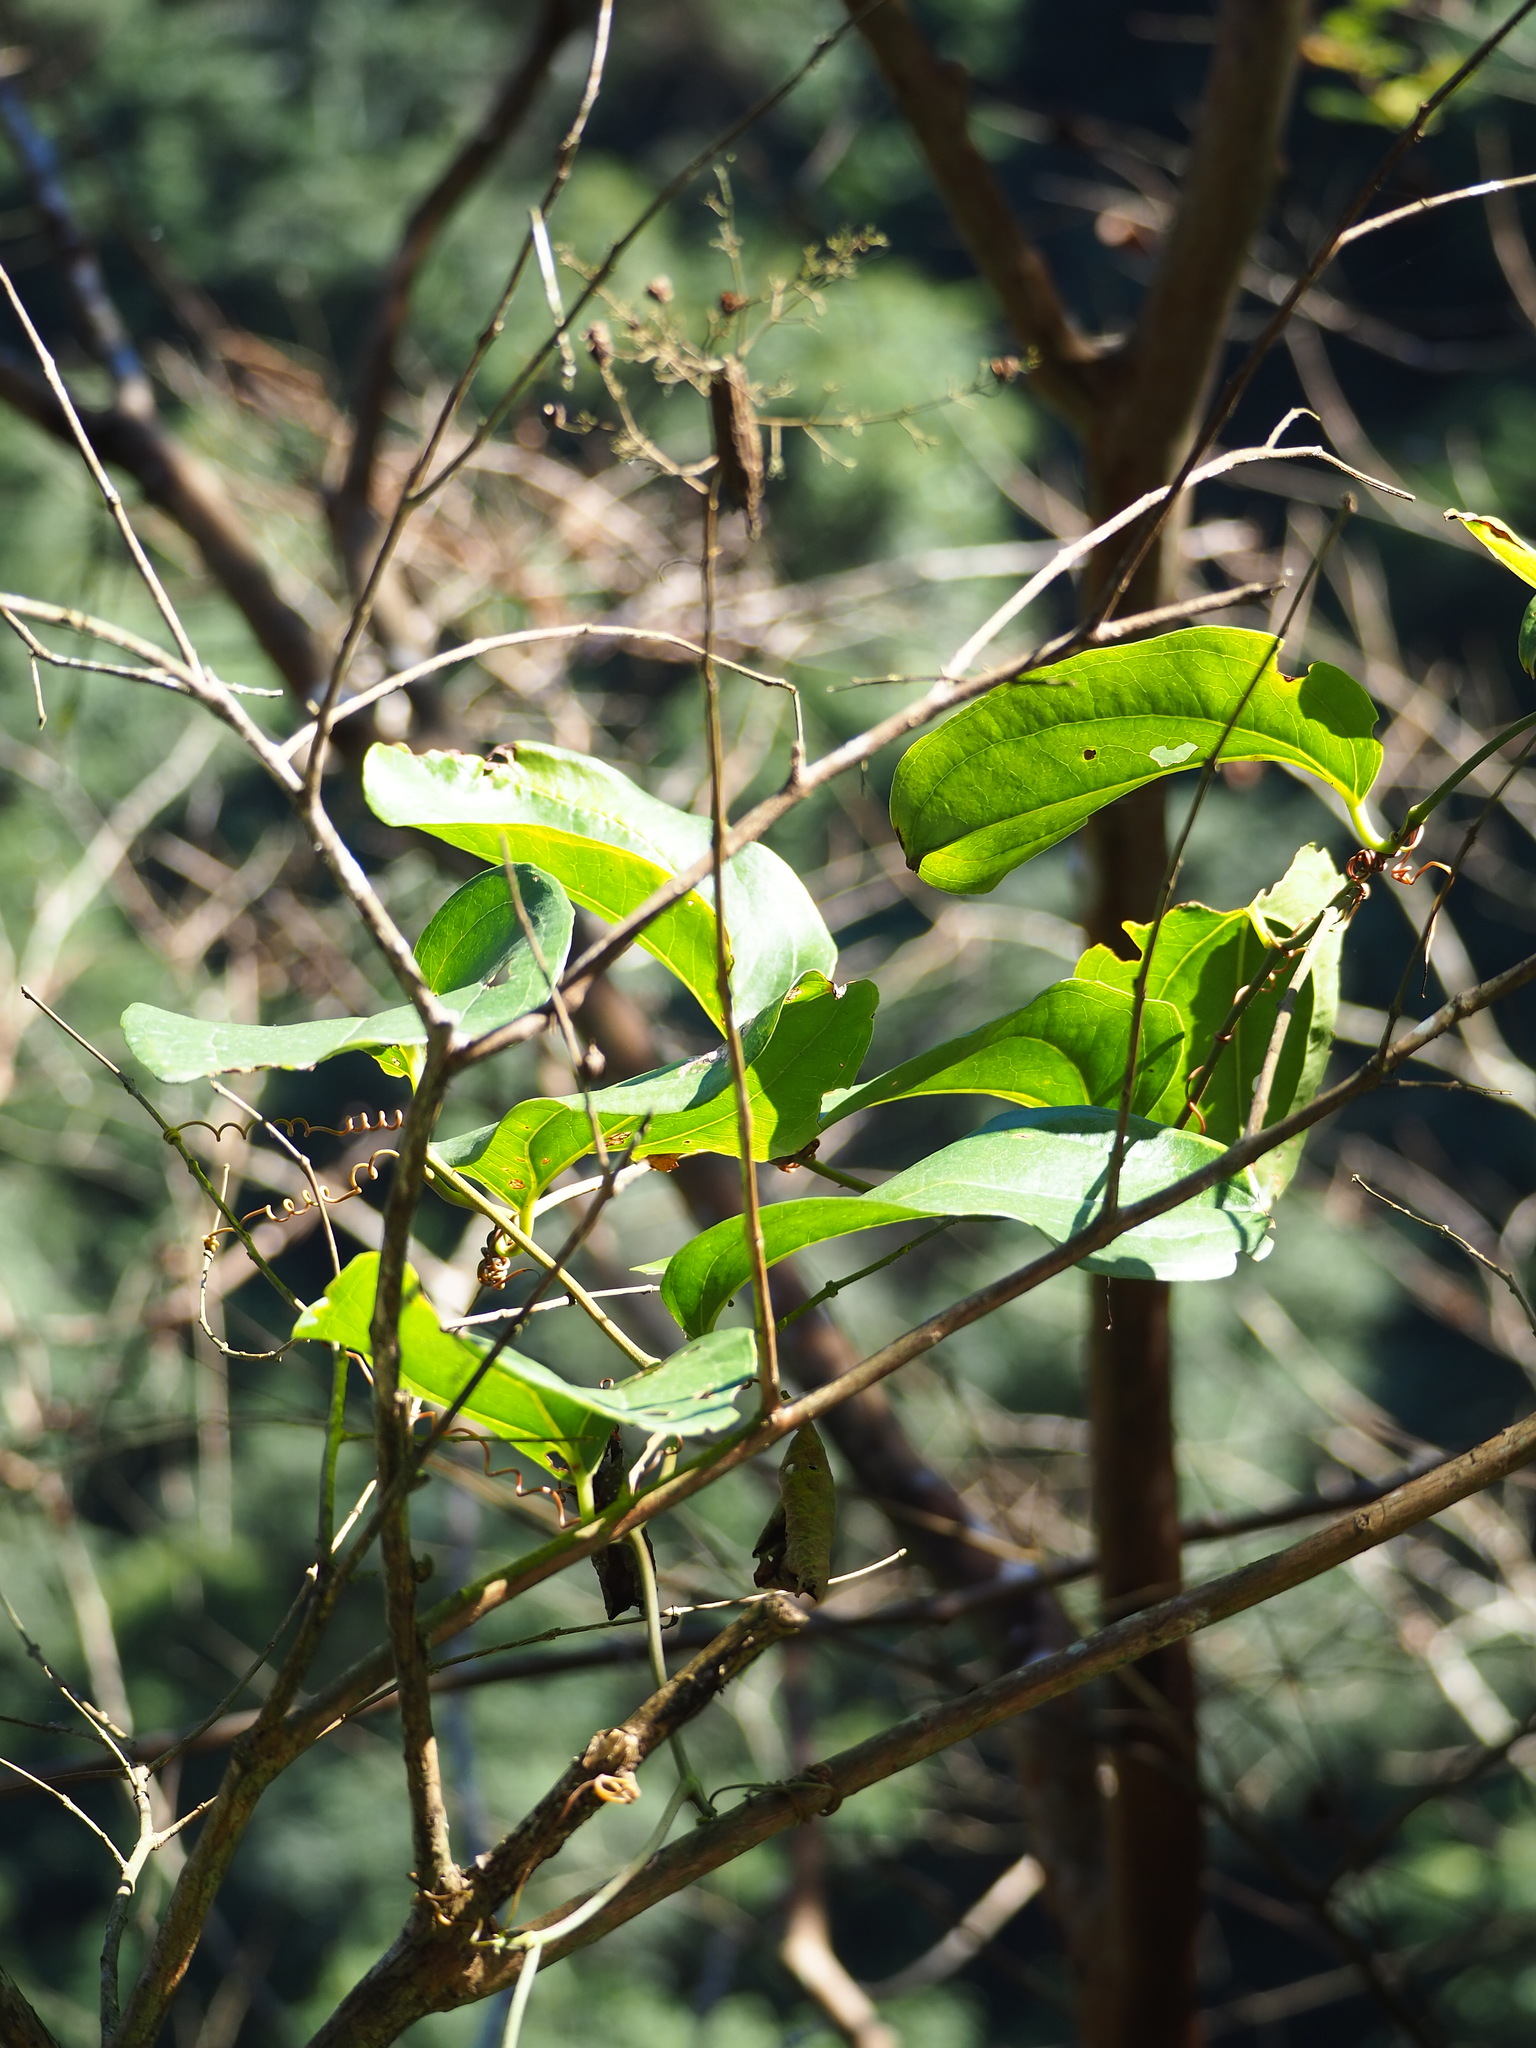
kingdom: Plantae
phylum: Tracheophyta
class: Liliopsida
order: Liliales
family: Smilacaceae
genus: Smilax
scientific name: Smilax bracteata
